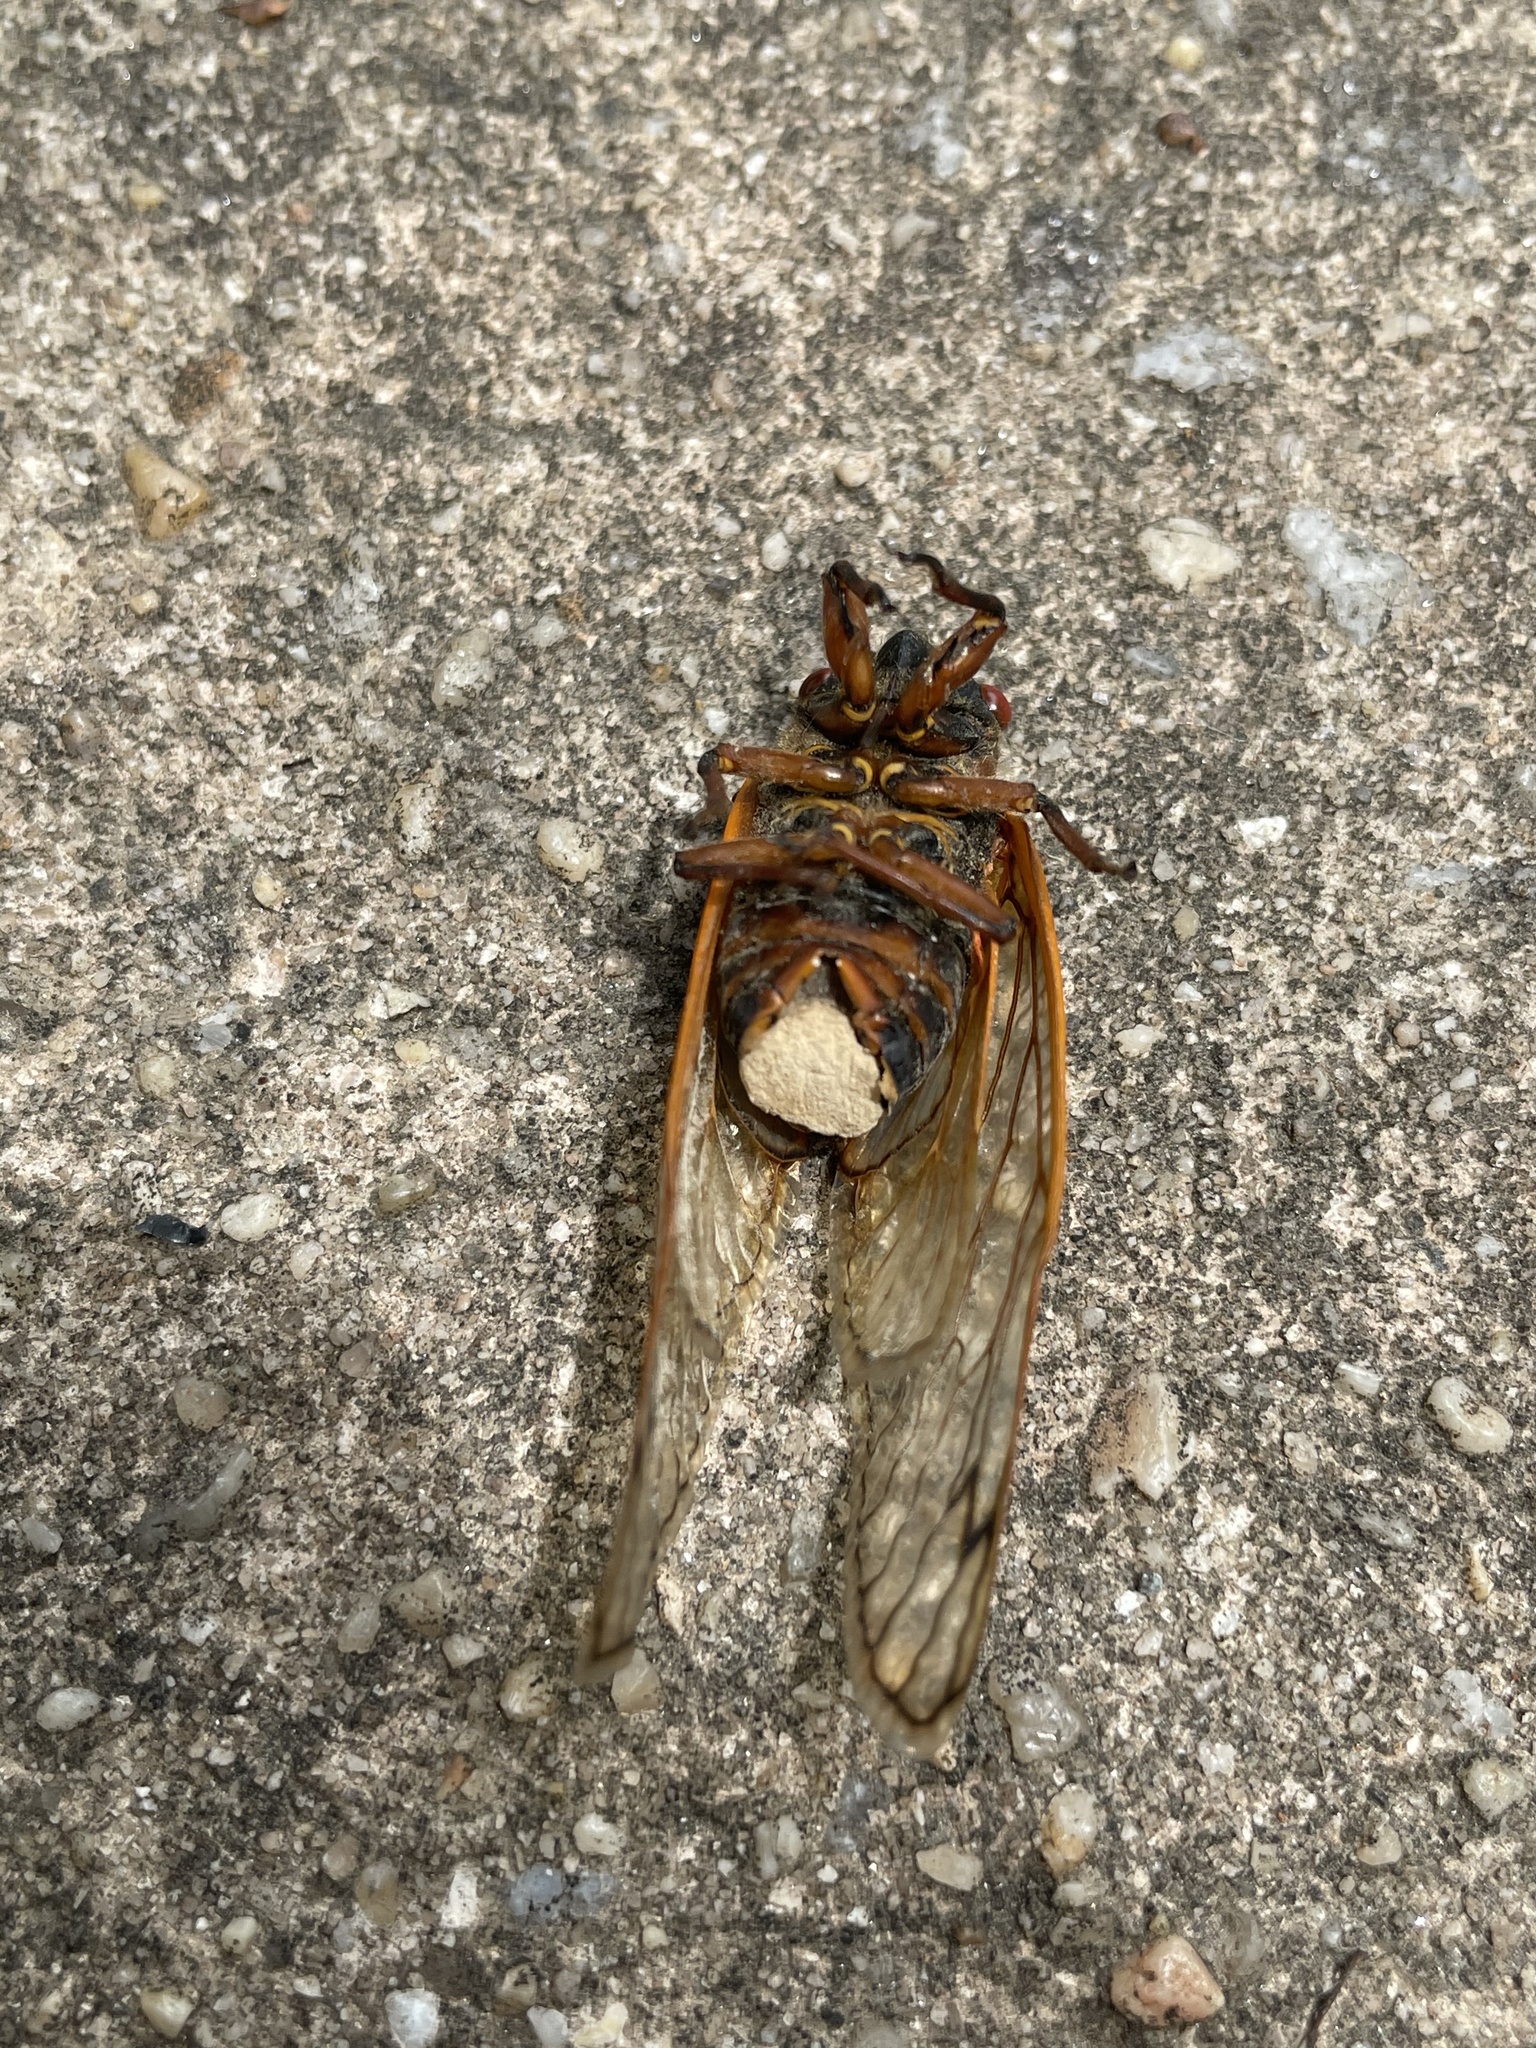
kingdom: Fungi
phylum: Entomophthoromycota
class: Entomophthoromycetes
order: Entomophthorales
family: Entomophthoraceae
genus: Massospora
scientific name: Massospora cicadina
